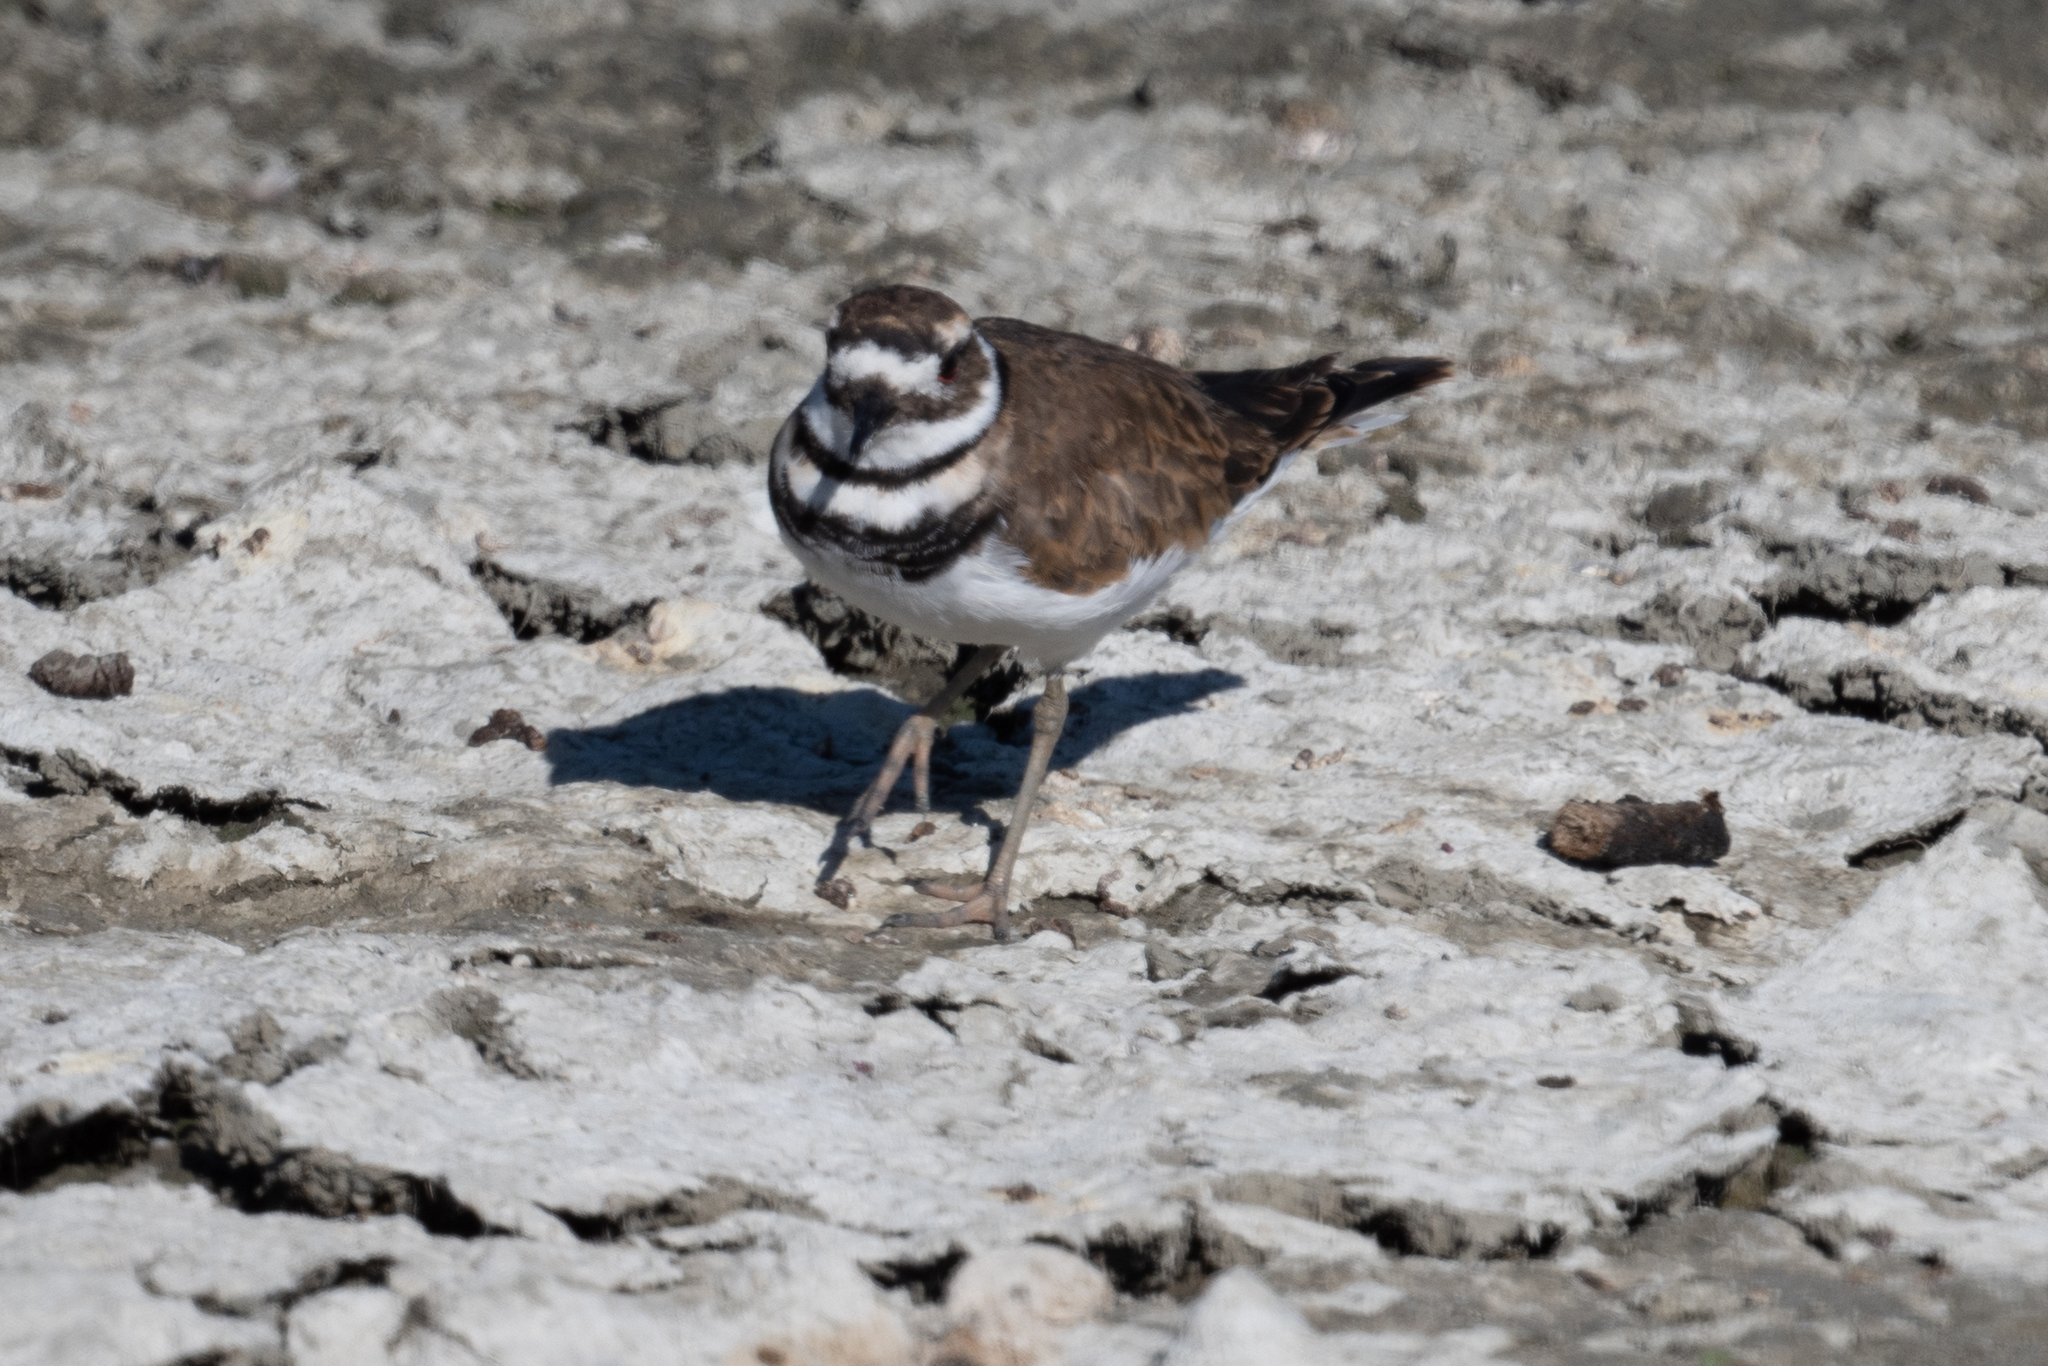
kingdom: Animalia
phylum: Chordata
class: Aves
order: Charadriiformes
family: Charadriidae
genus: Charadrius
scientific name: Charadrius vociferus
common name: Killdeer
